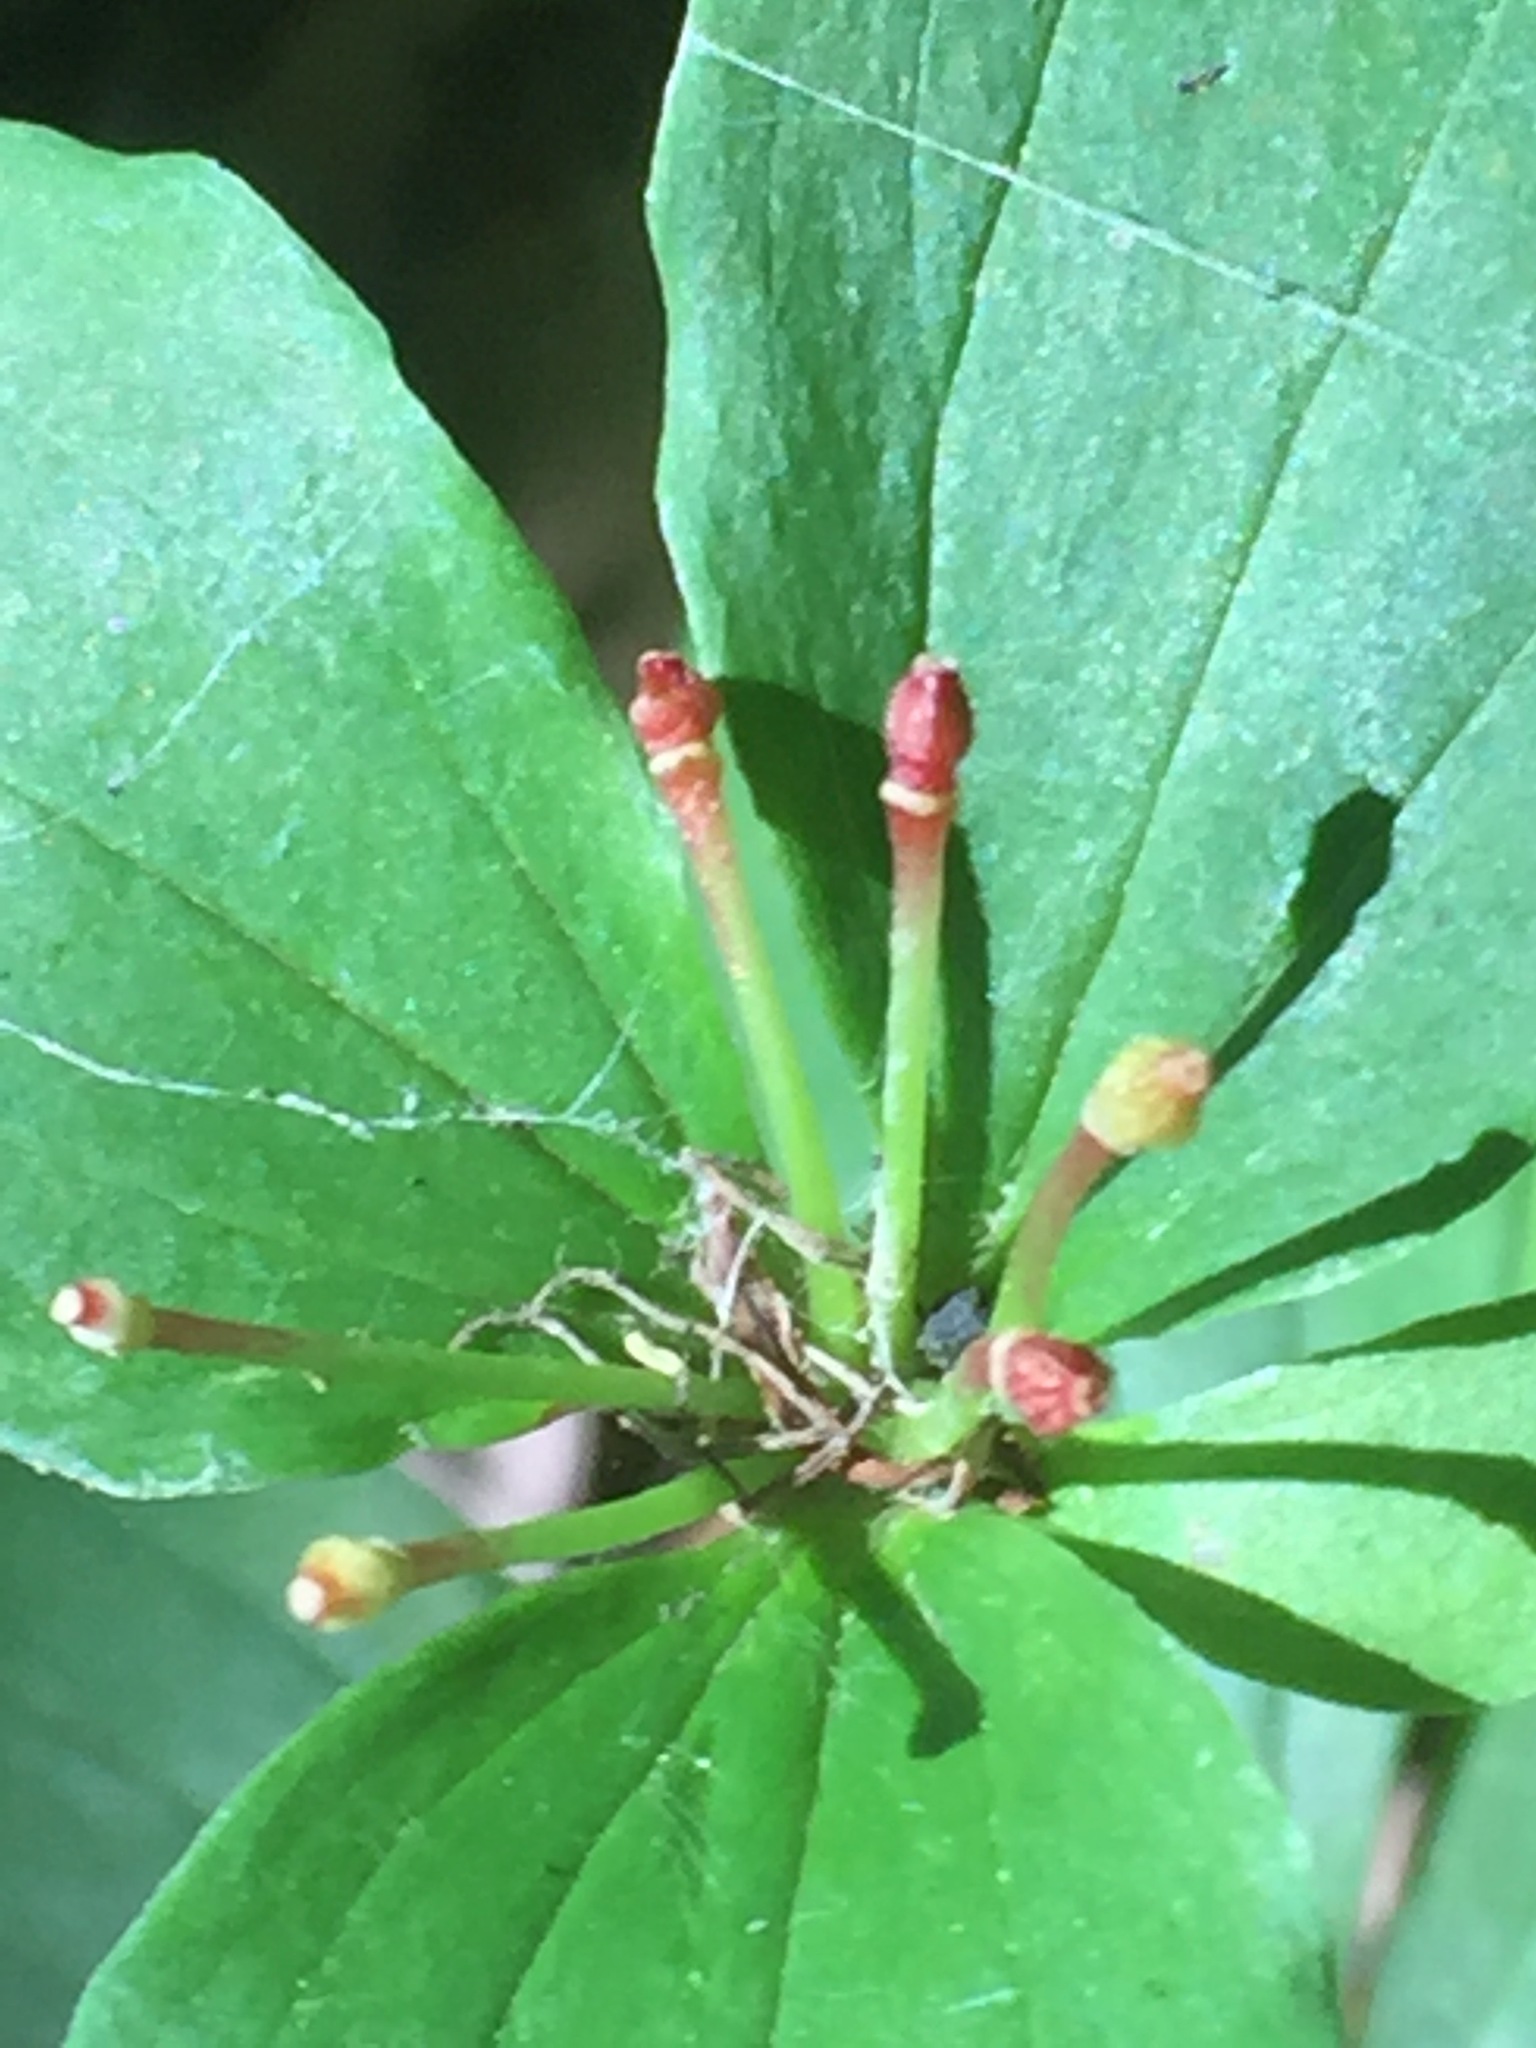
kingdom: Plantae
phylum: Tracheophyta
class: Liliopsida
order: Liliales
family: Liliaceae
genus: Medeola
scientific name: Medeola virginiana
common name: Indian cucumber-root
